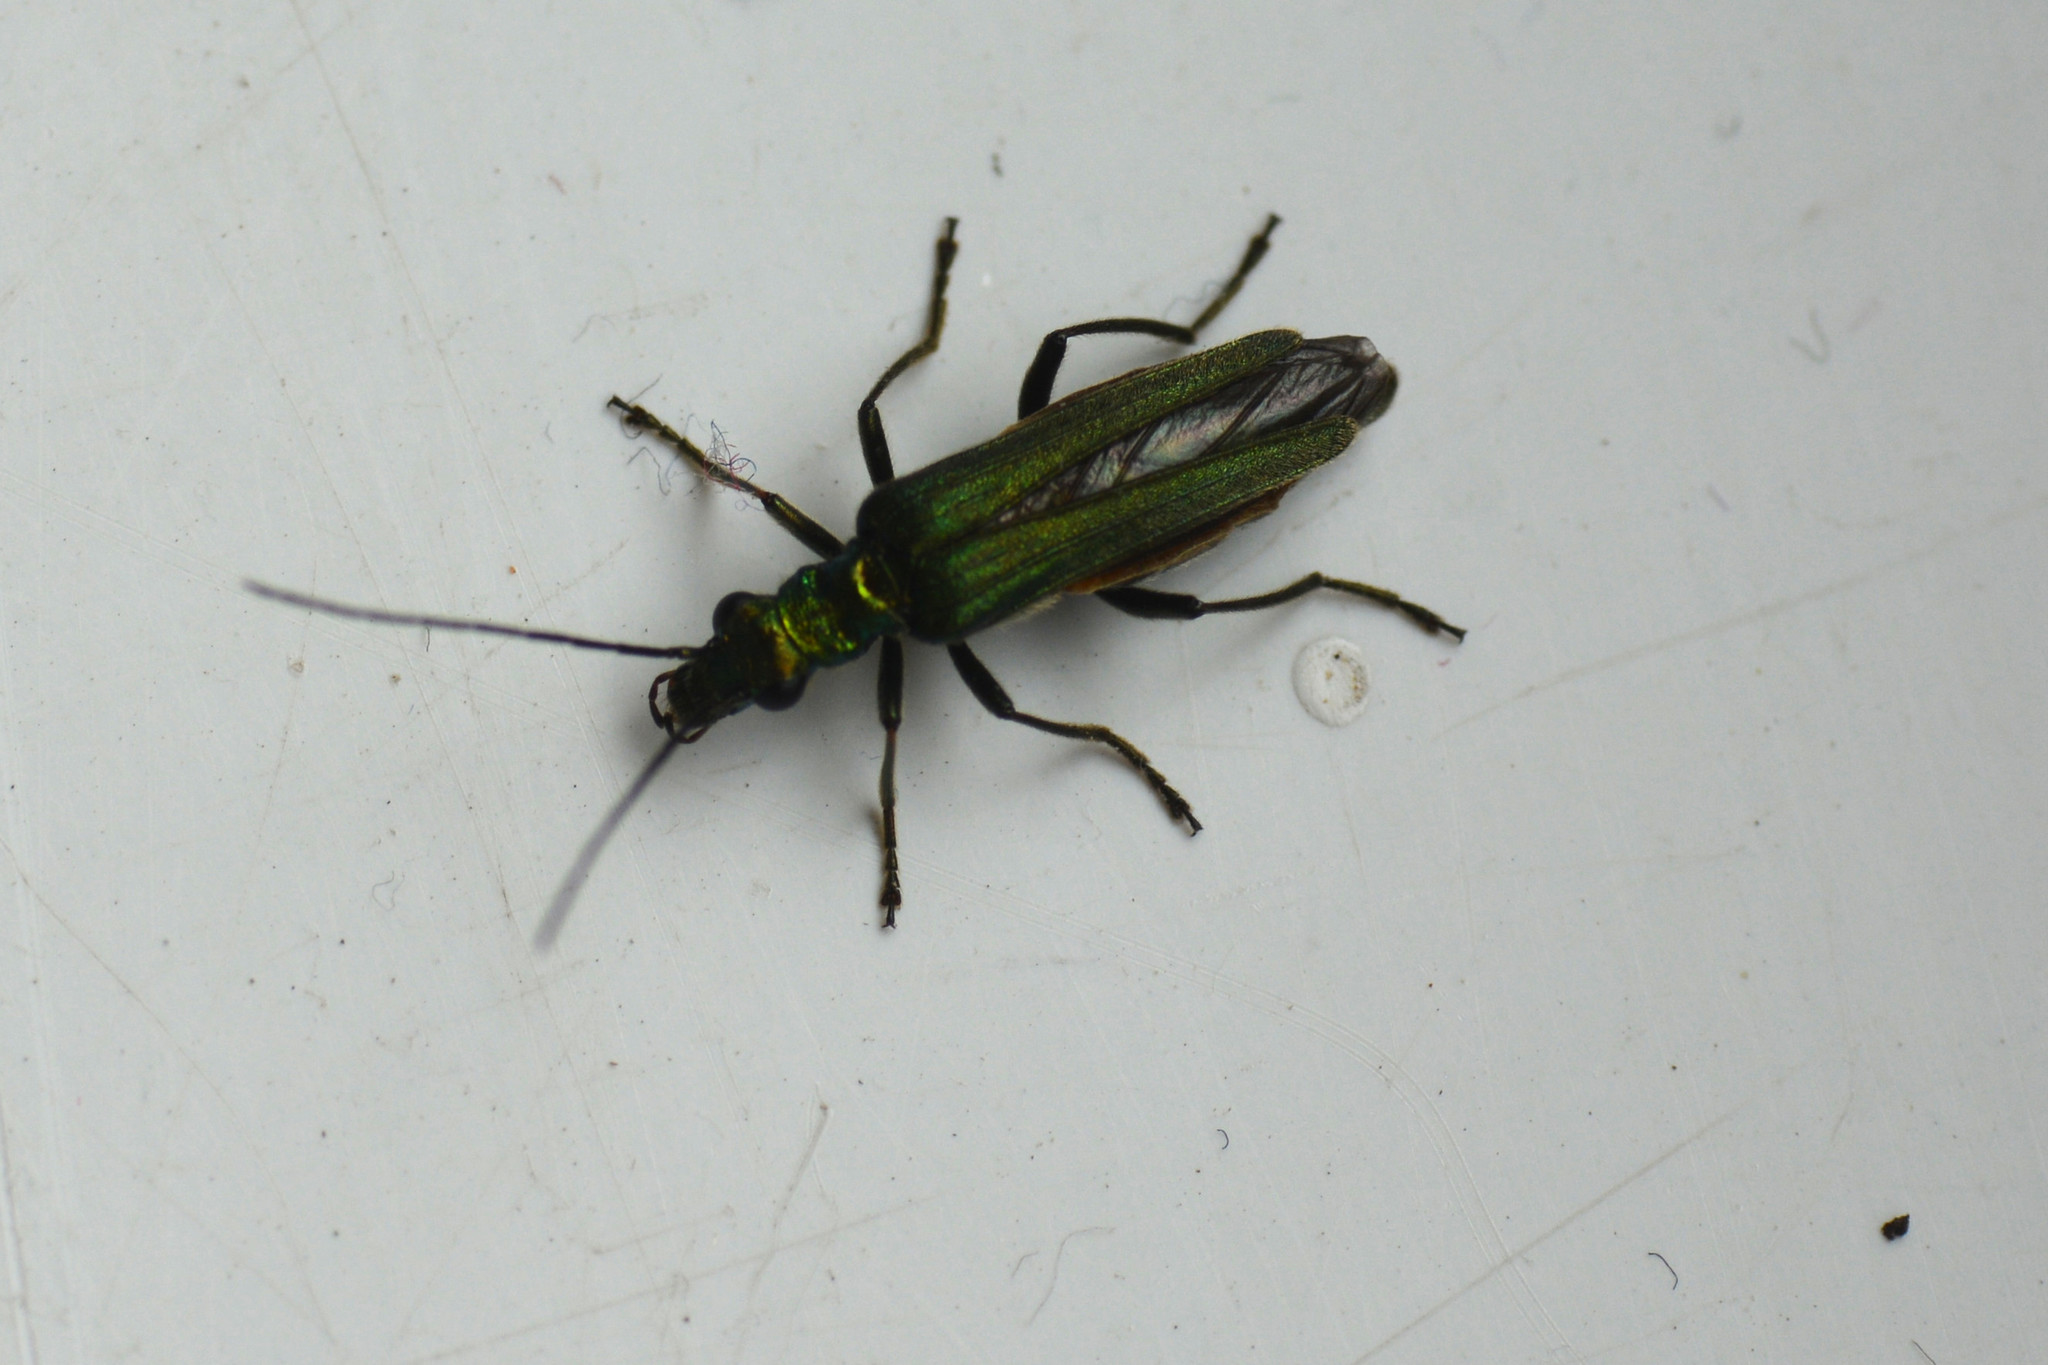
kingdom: Animalia
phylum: Arthropoda
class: Insecta
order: Coleoptera
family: Oedemeridae
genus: Oedemera
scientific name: Oedemera nobilis
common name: Swollen-thighed beetle
